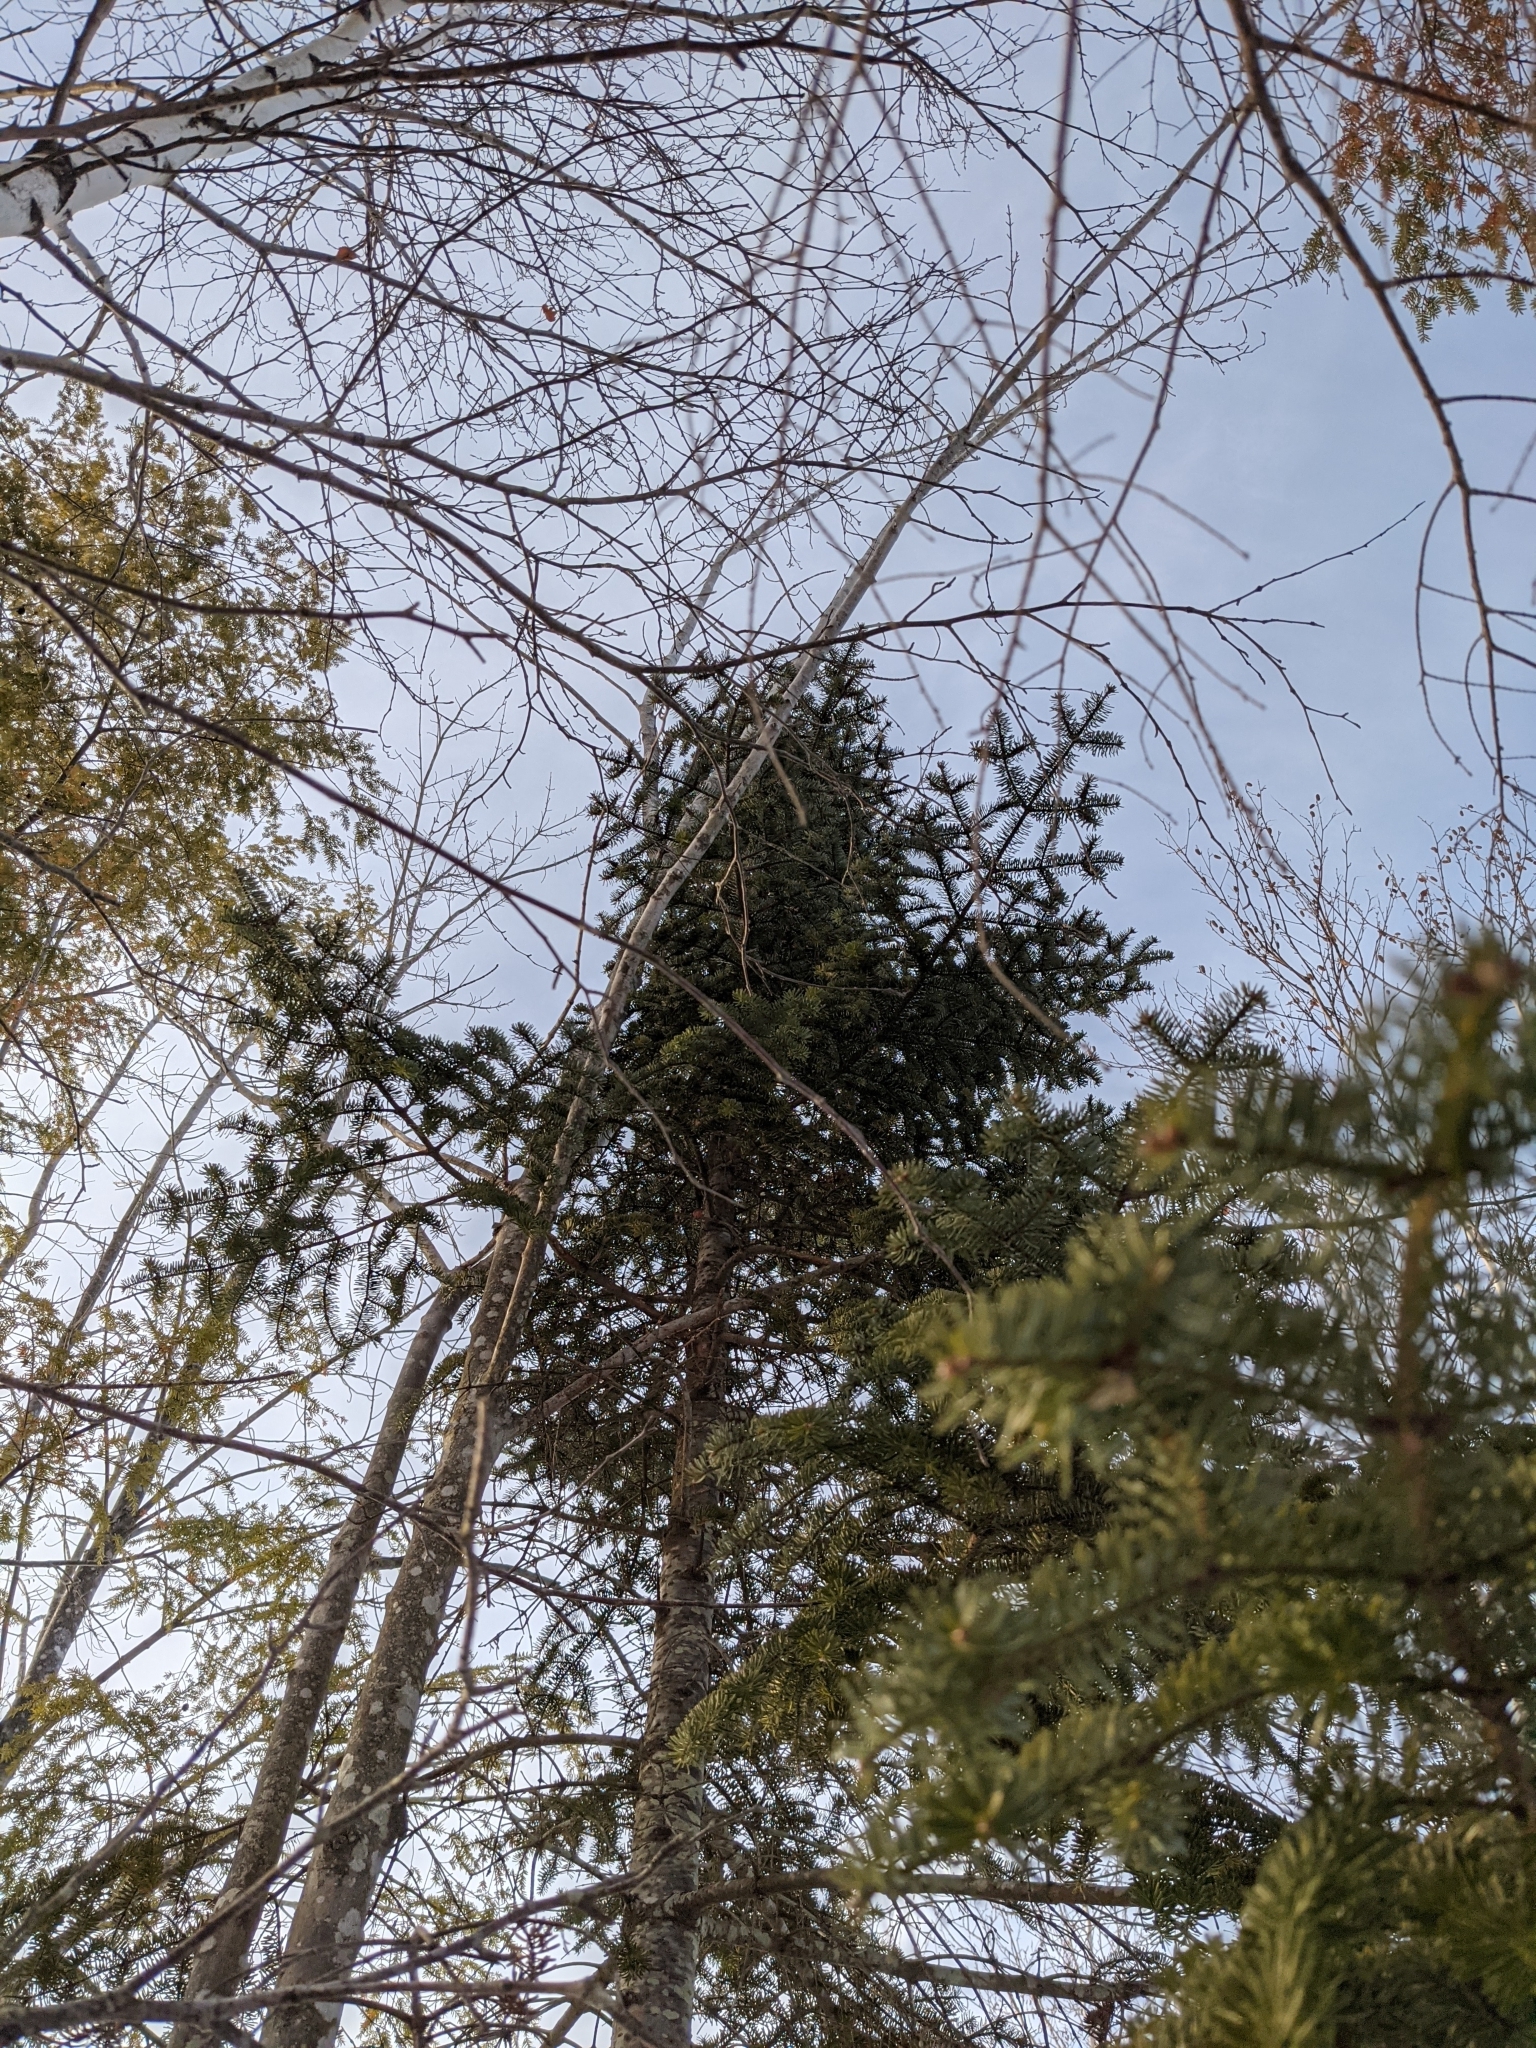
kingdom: Plantae
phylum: Tracheophyta
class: Pinopsida
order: Pinales
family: Pinaceae
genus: Abies
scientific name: Abies balsamea
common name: Balsam fir
